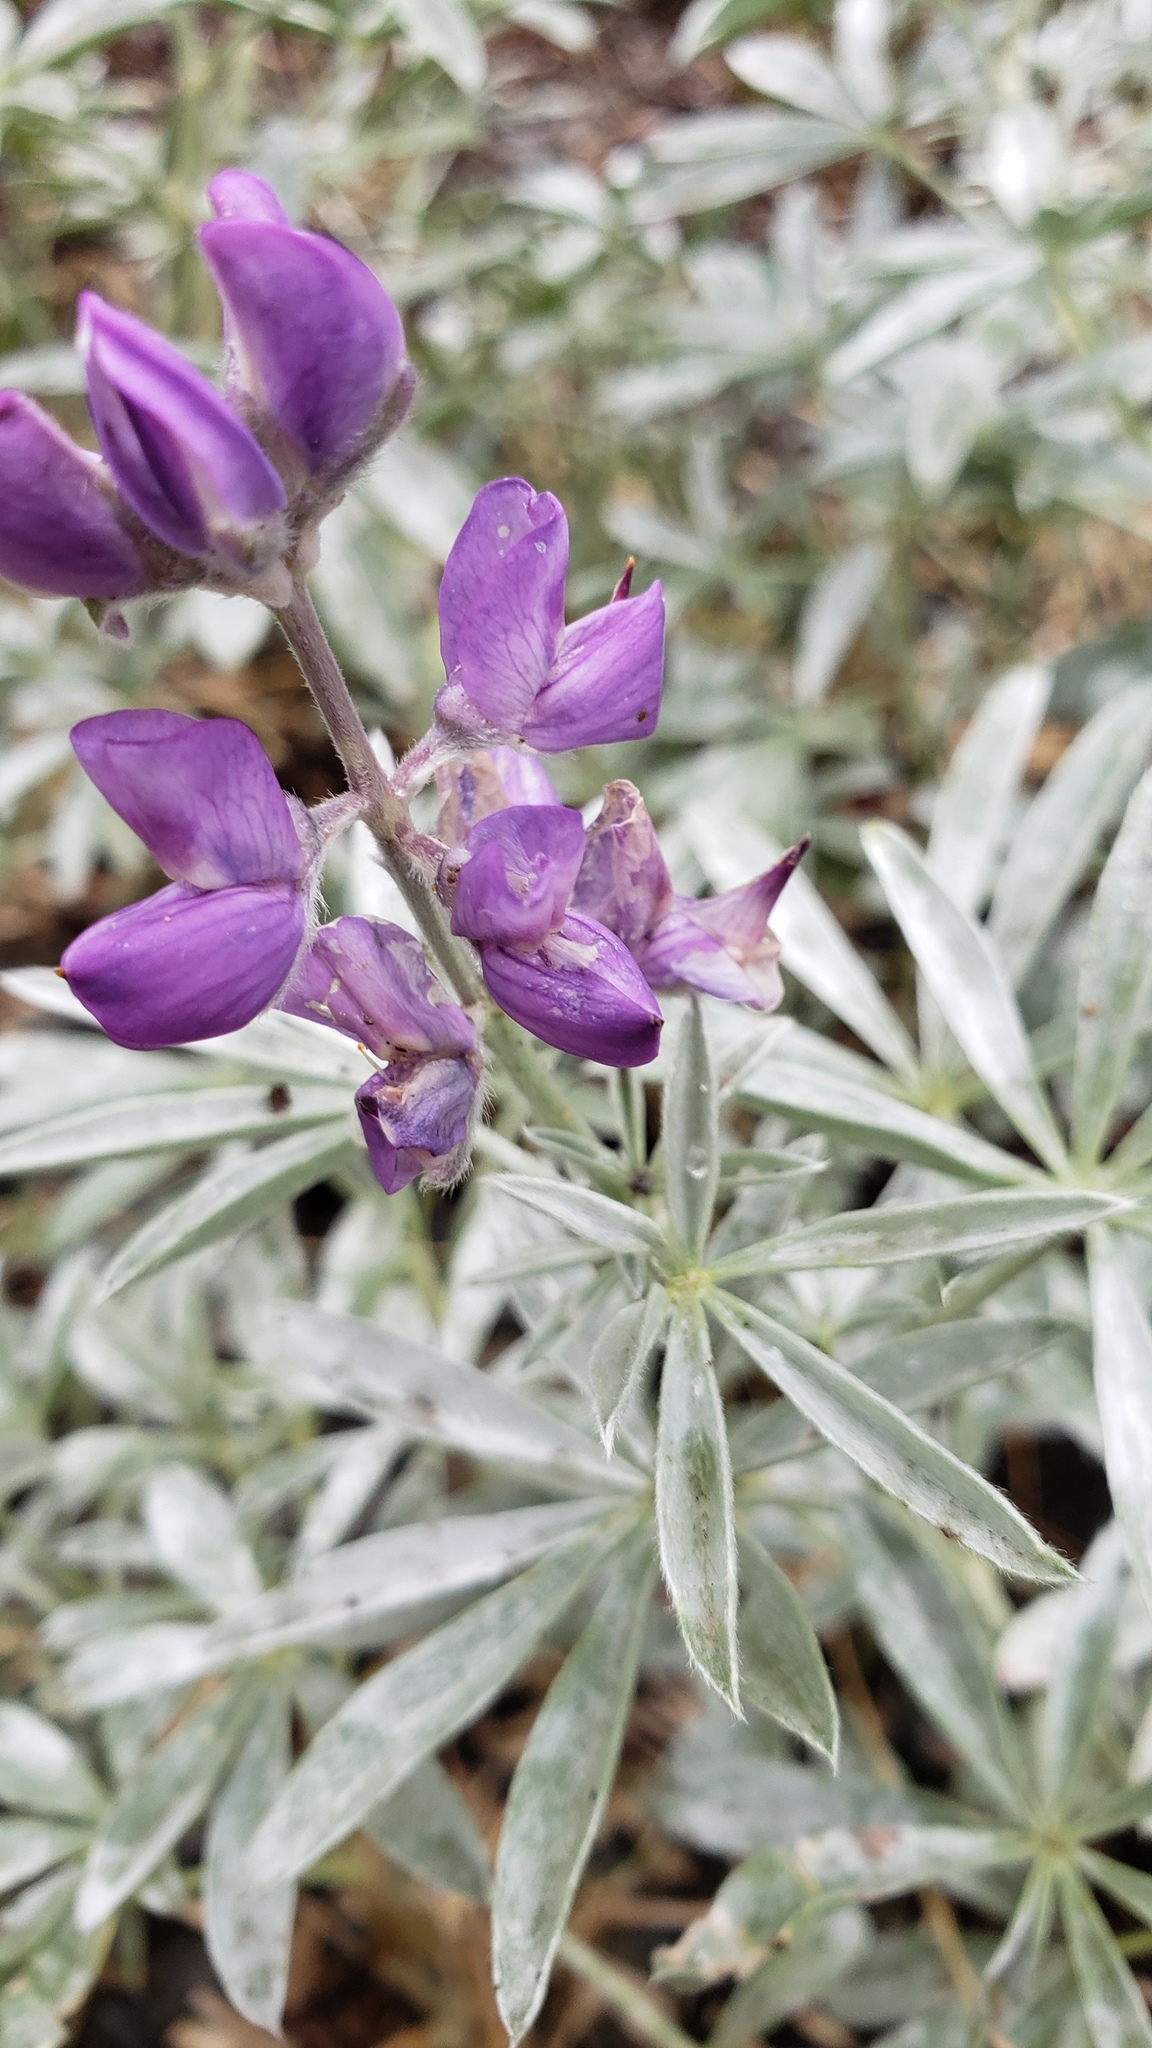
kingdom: Plantae
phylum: Tracheophyta
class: Magnoliopsida
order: Fabales
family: Fabaceae
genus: Lupinus
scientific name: Lupinus obtusilobus
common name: Blunt-lobe lupine
